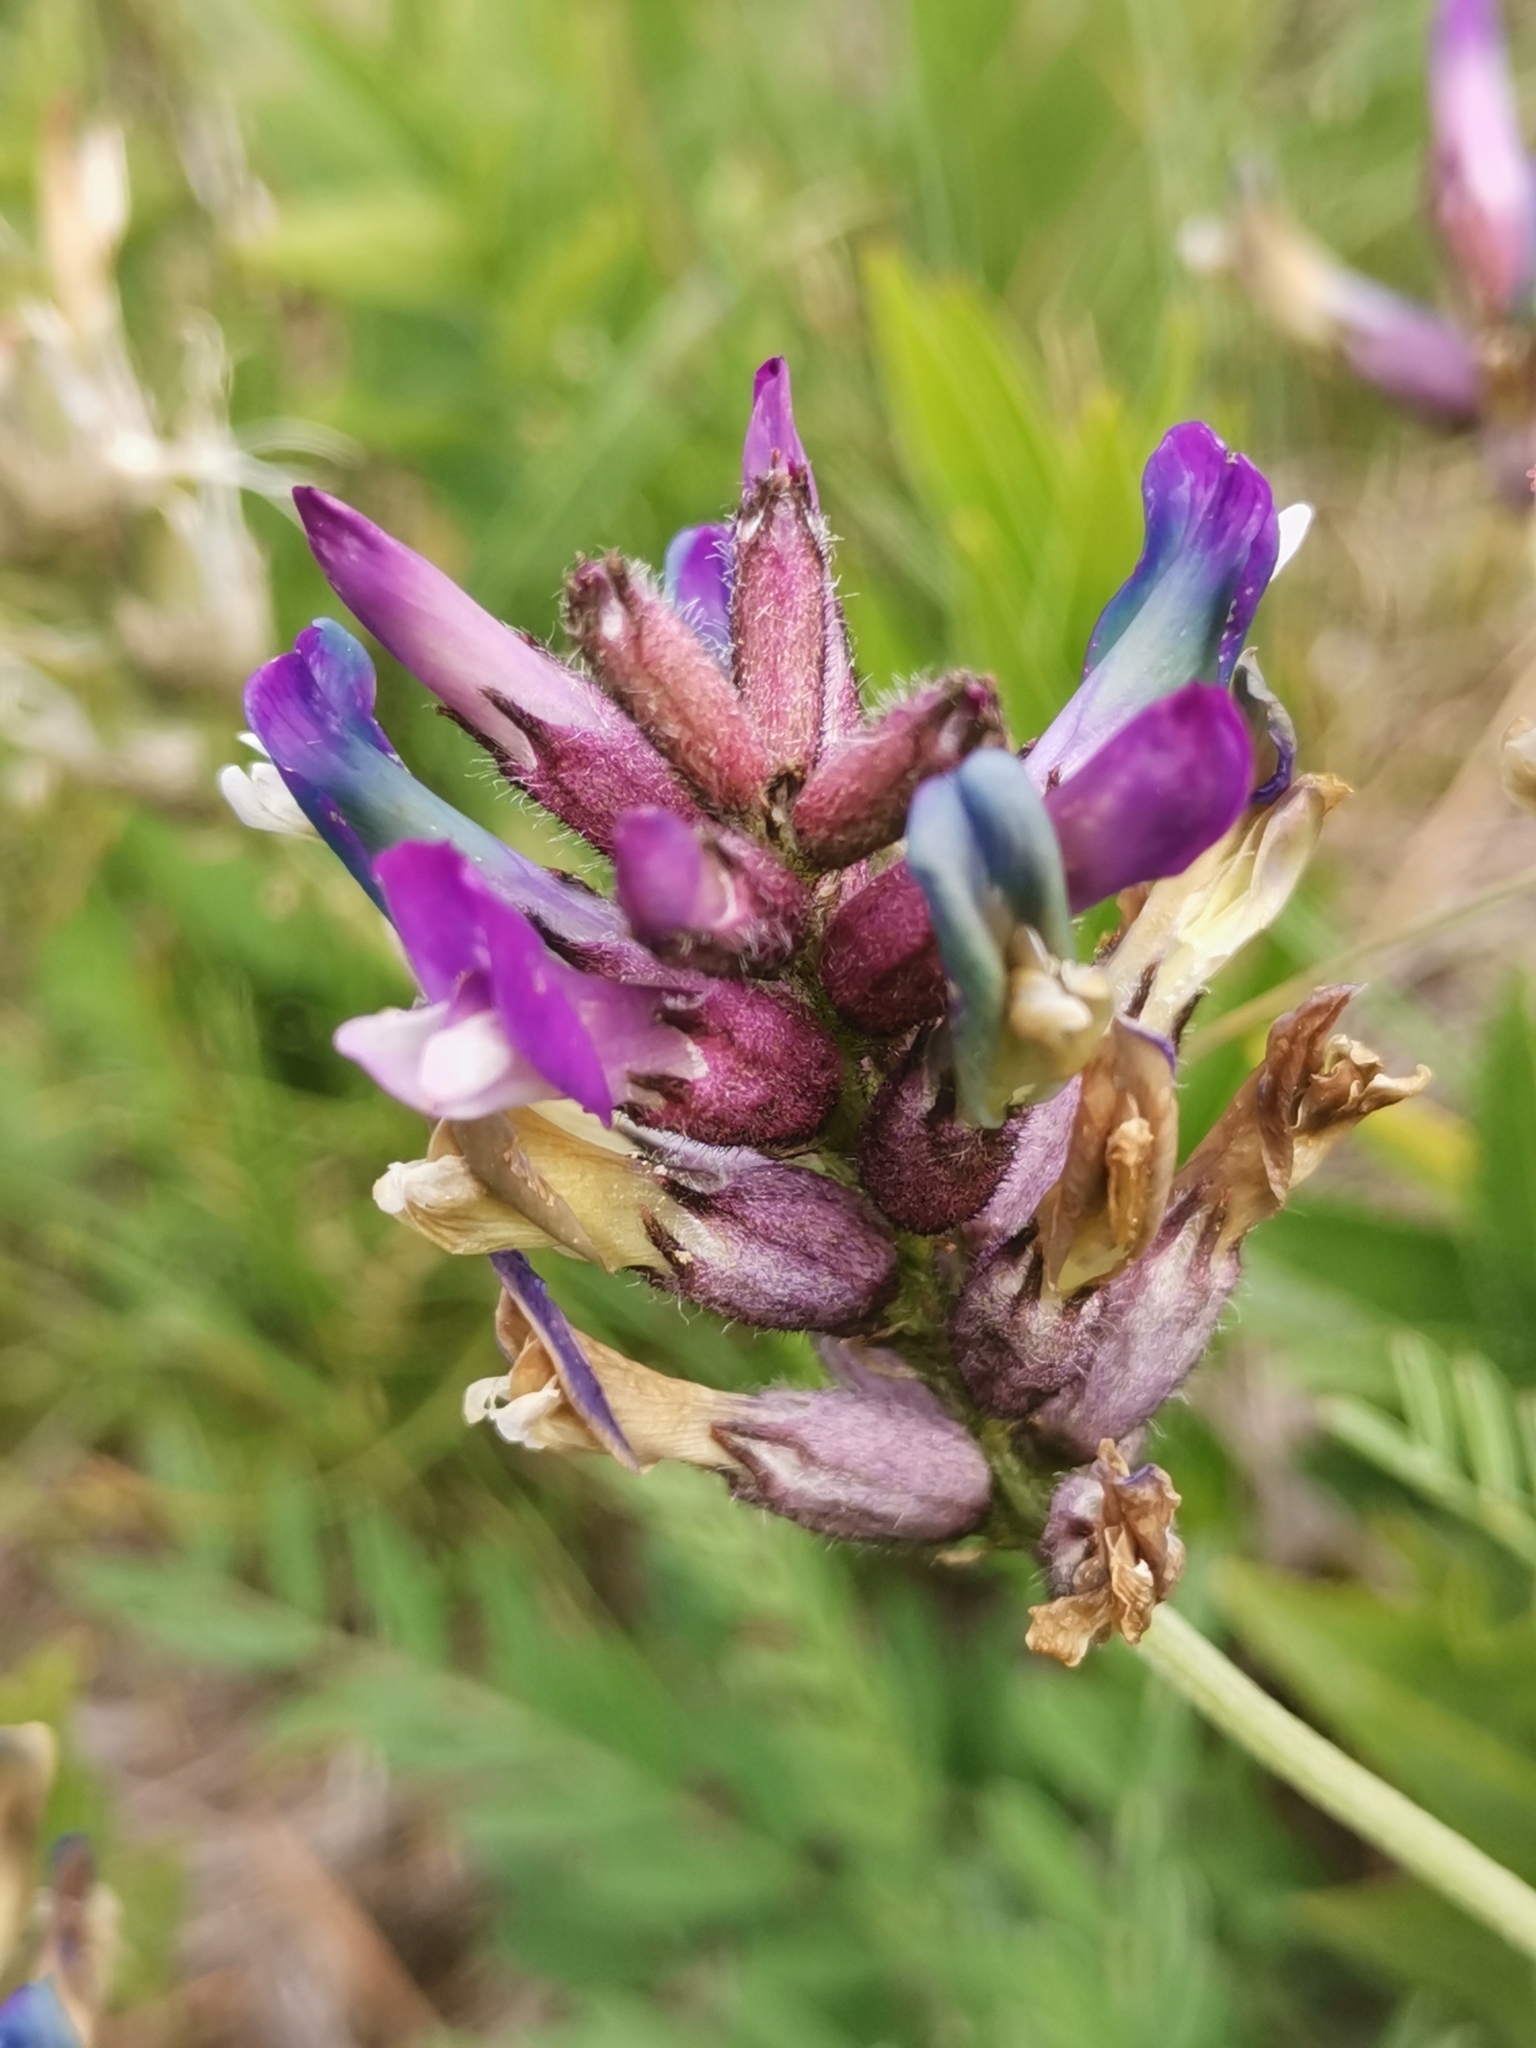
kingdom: Plantae
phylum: Tracheophyta
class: Magnoliopsida
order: Fabales
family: Fabaceae
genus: Astragalus
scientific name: Astragalus vesicarius
